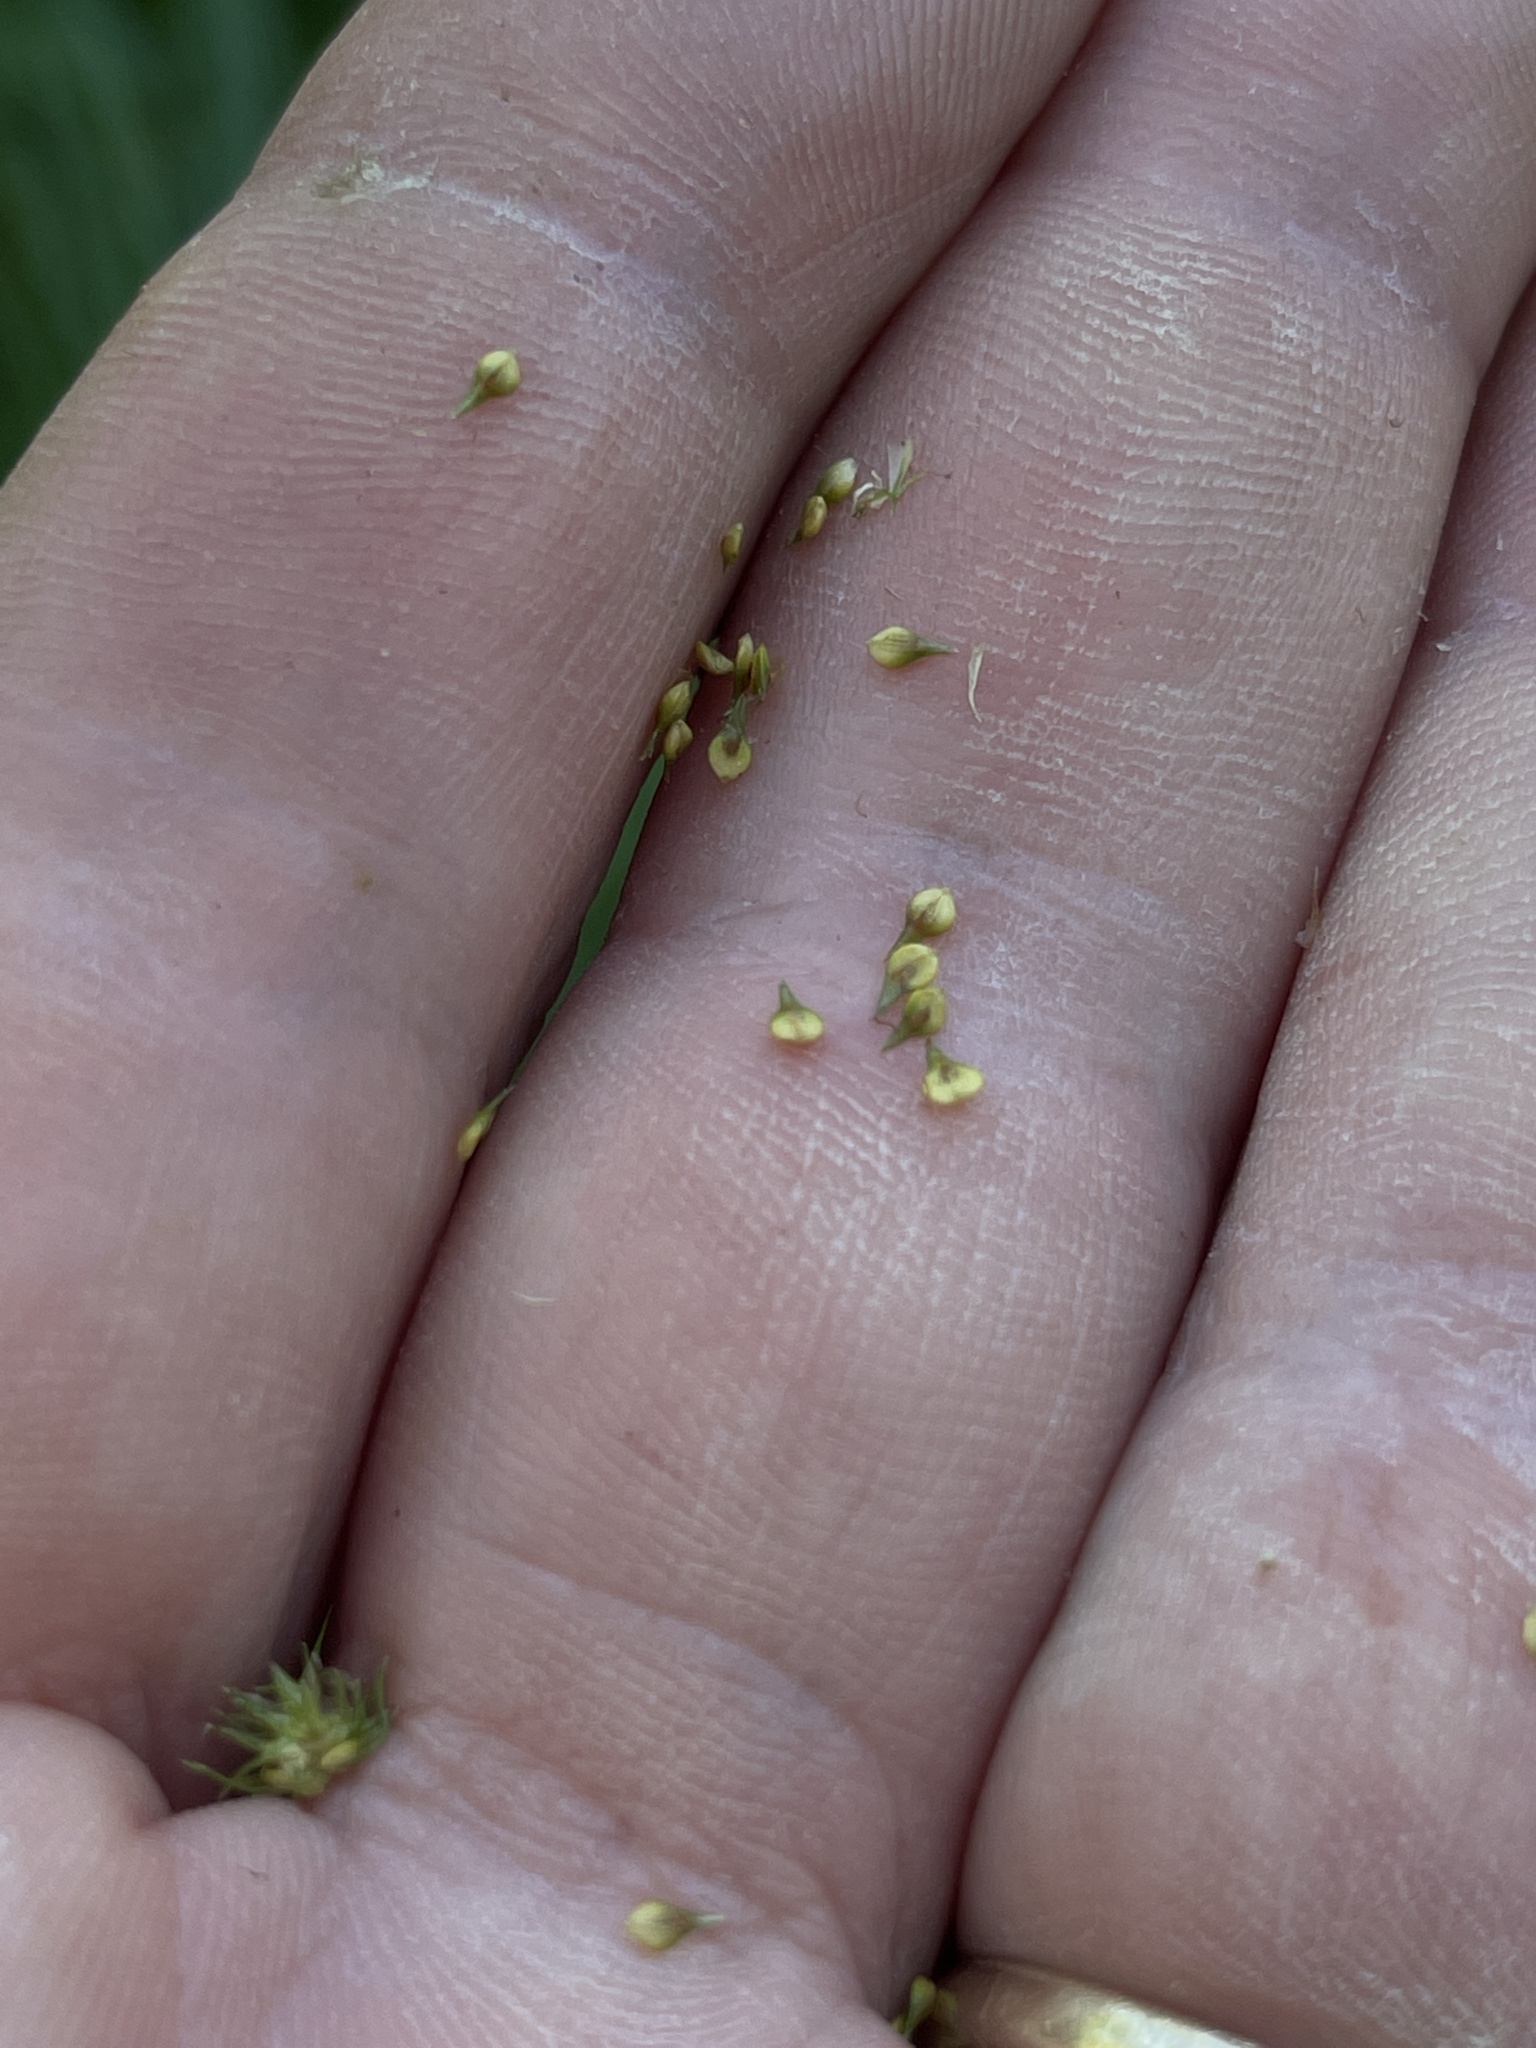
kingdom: Plantae
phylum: Tracheophyta
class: Liliopsida
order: Poales
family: Cyperaceae
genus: Carex
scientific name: Carex vulpinoidea
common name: American fox-sedge
